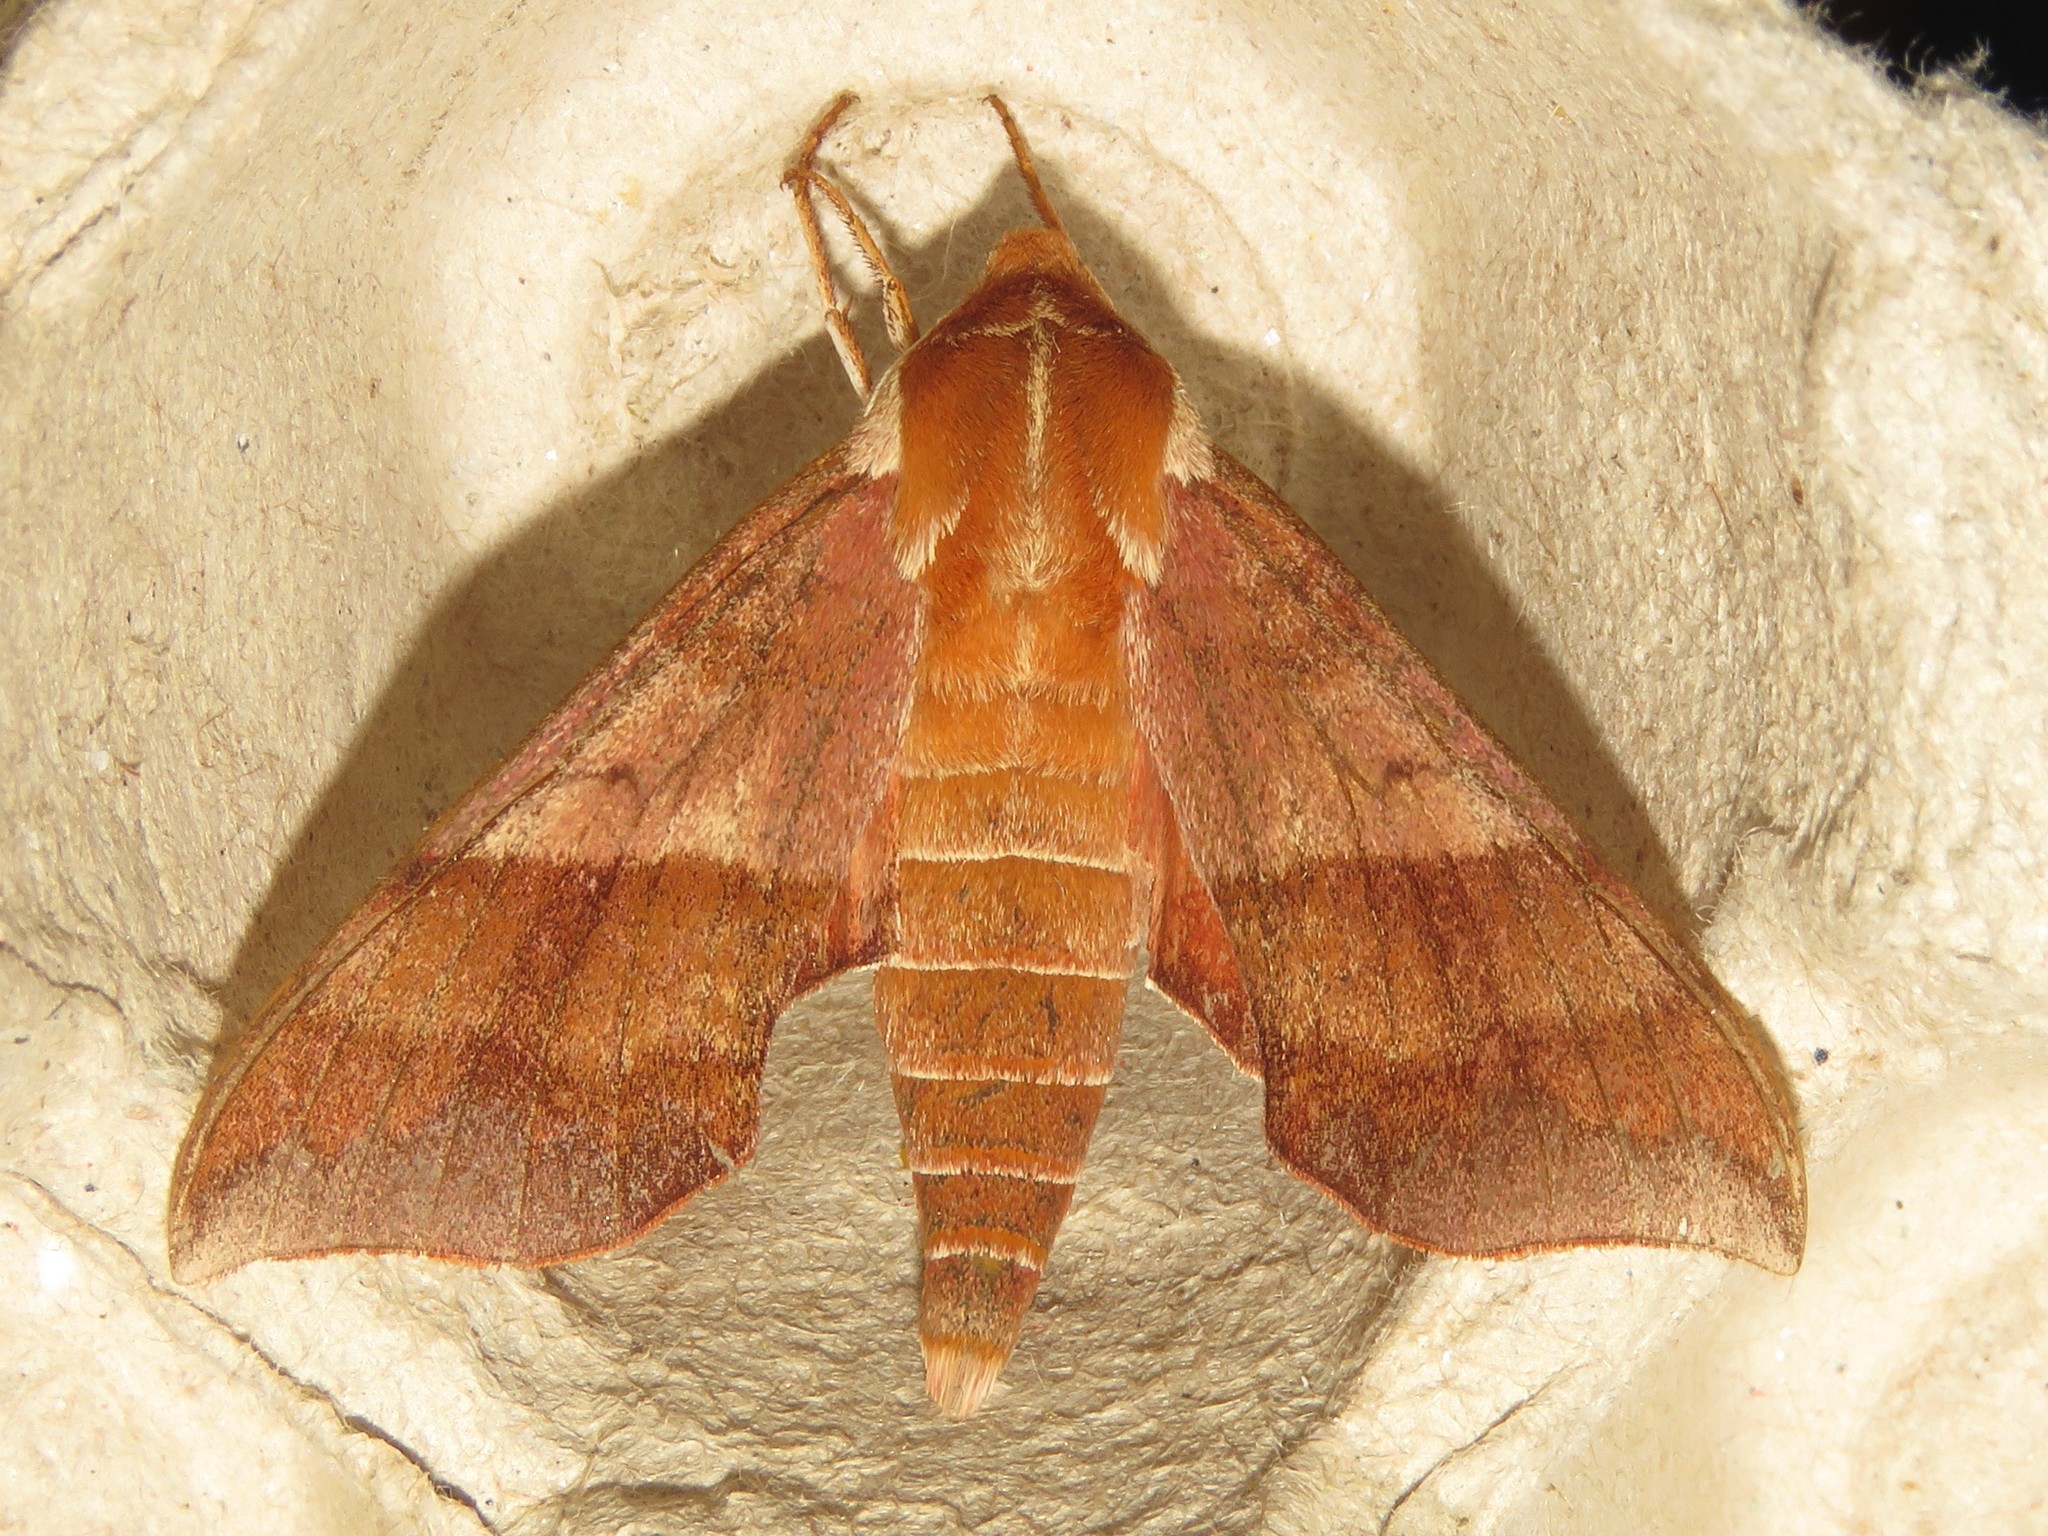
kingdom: Animalia
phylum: Arthropoda
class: Insecta
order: Lepidoptera
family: Sphingidae
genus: Darapsa
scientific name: Darapsa choerilus
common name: Azalea sphinx
